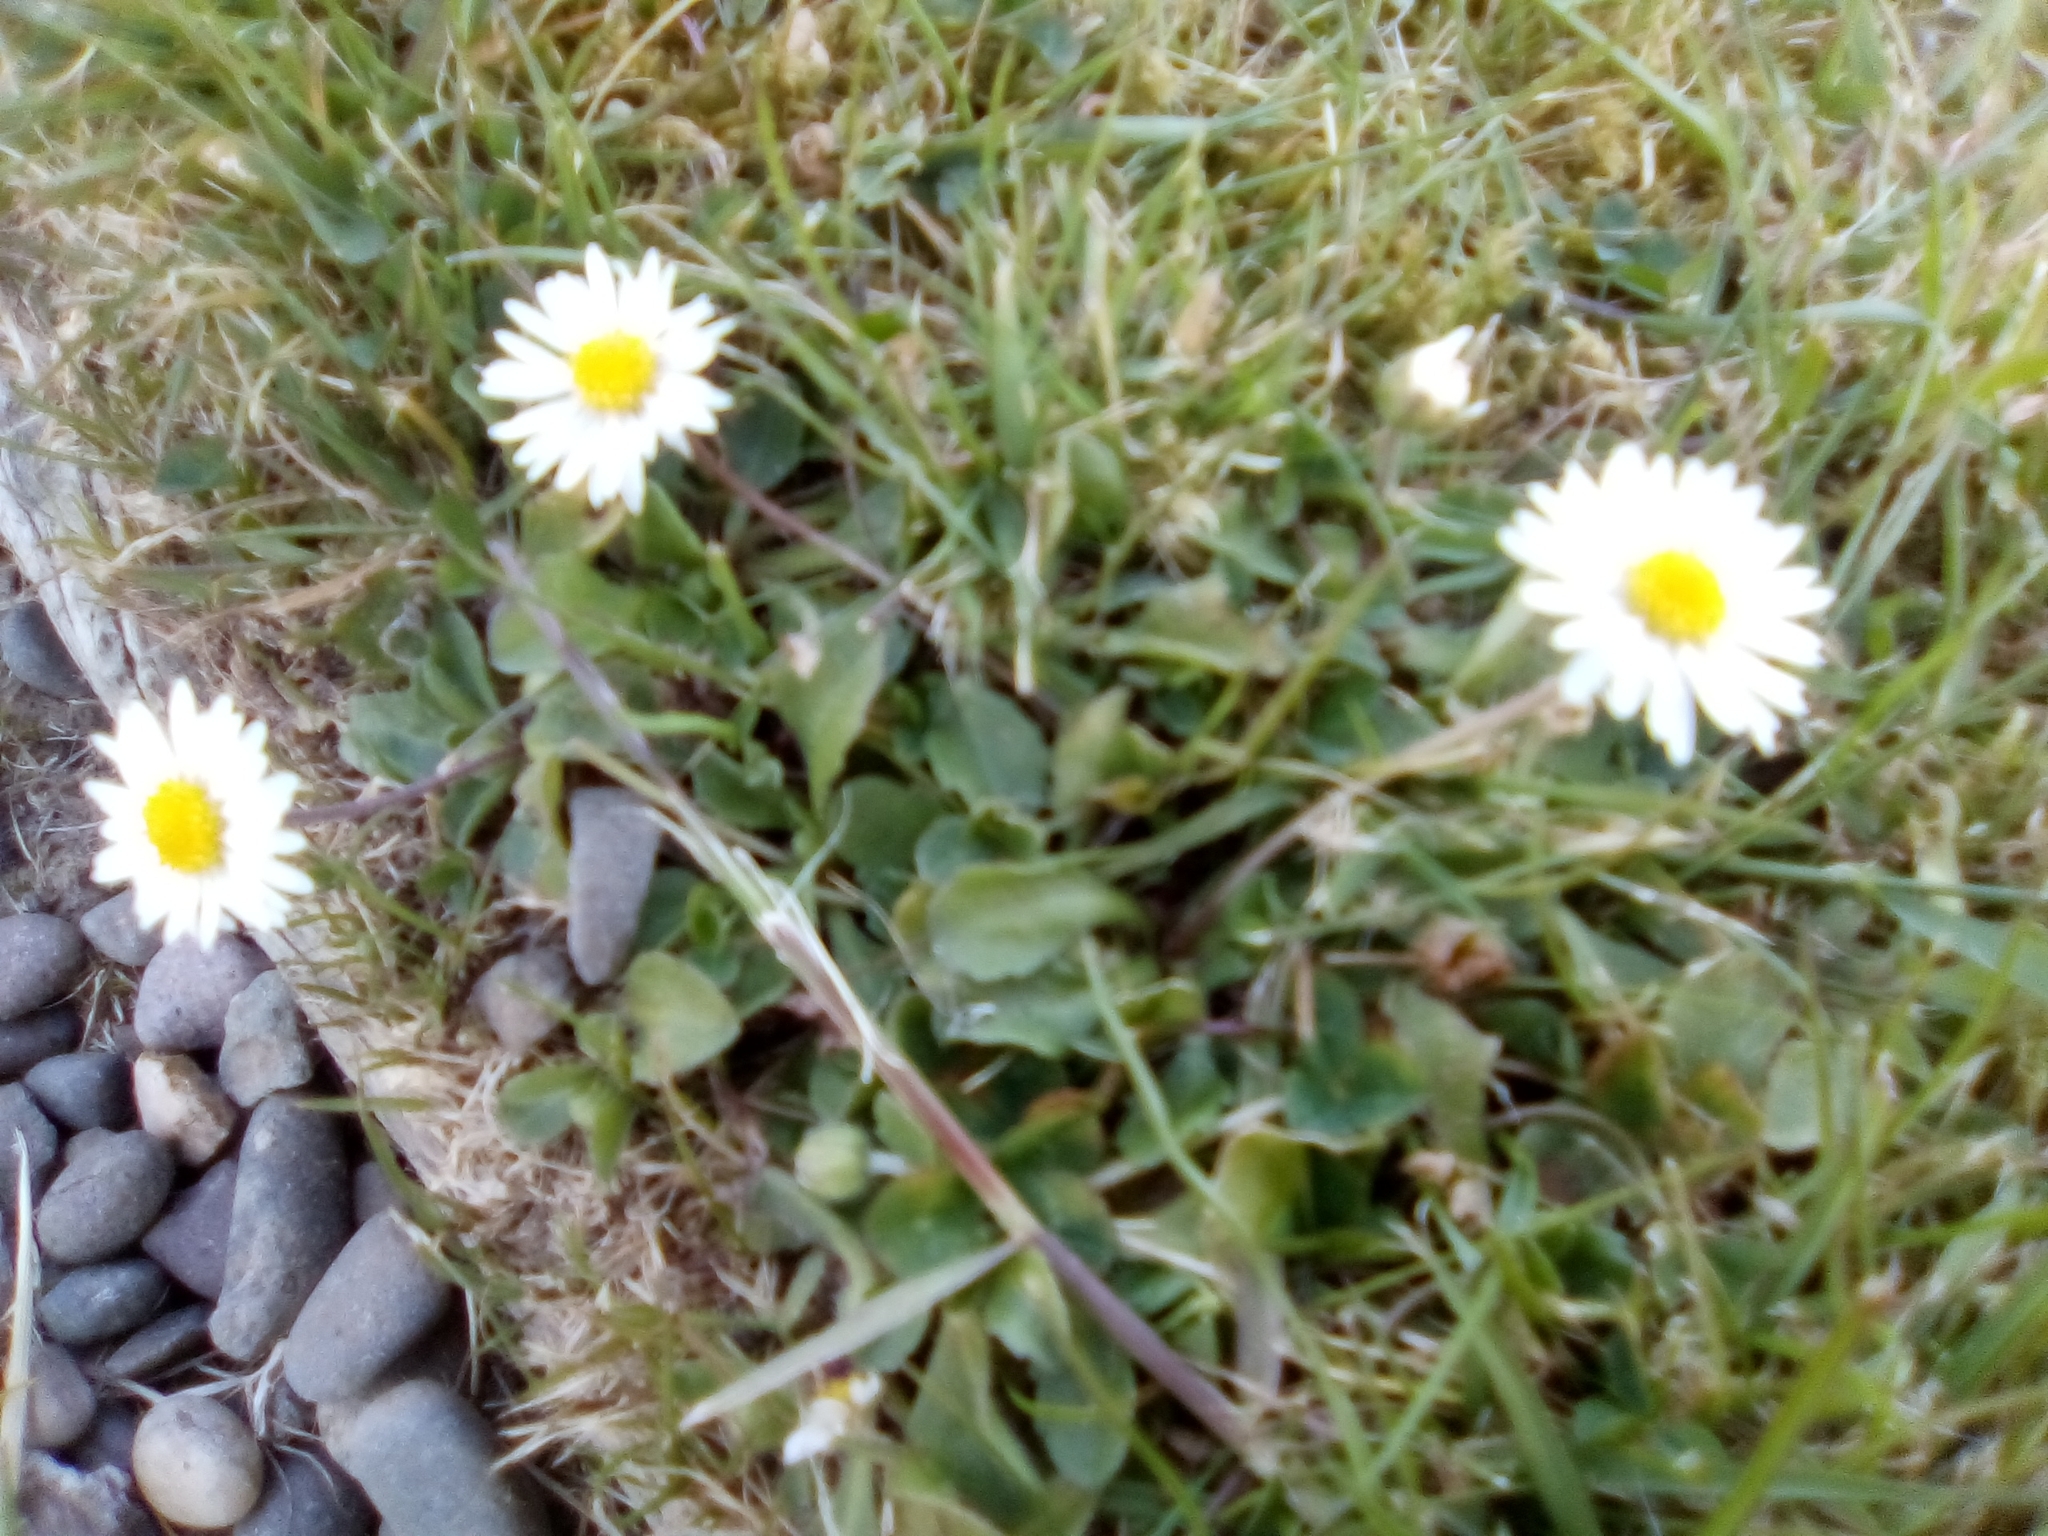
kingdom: Plantae
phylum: Tracheophyta
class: Magnoliopsida
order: Asterales
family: Asteraceae
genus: Bellis
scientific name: Bellis perennis
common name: Lawndaisy
